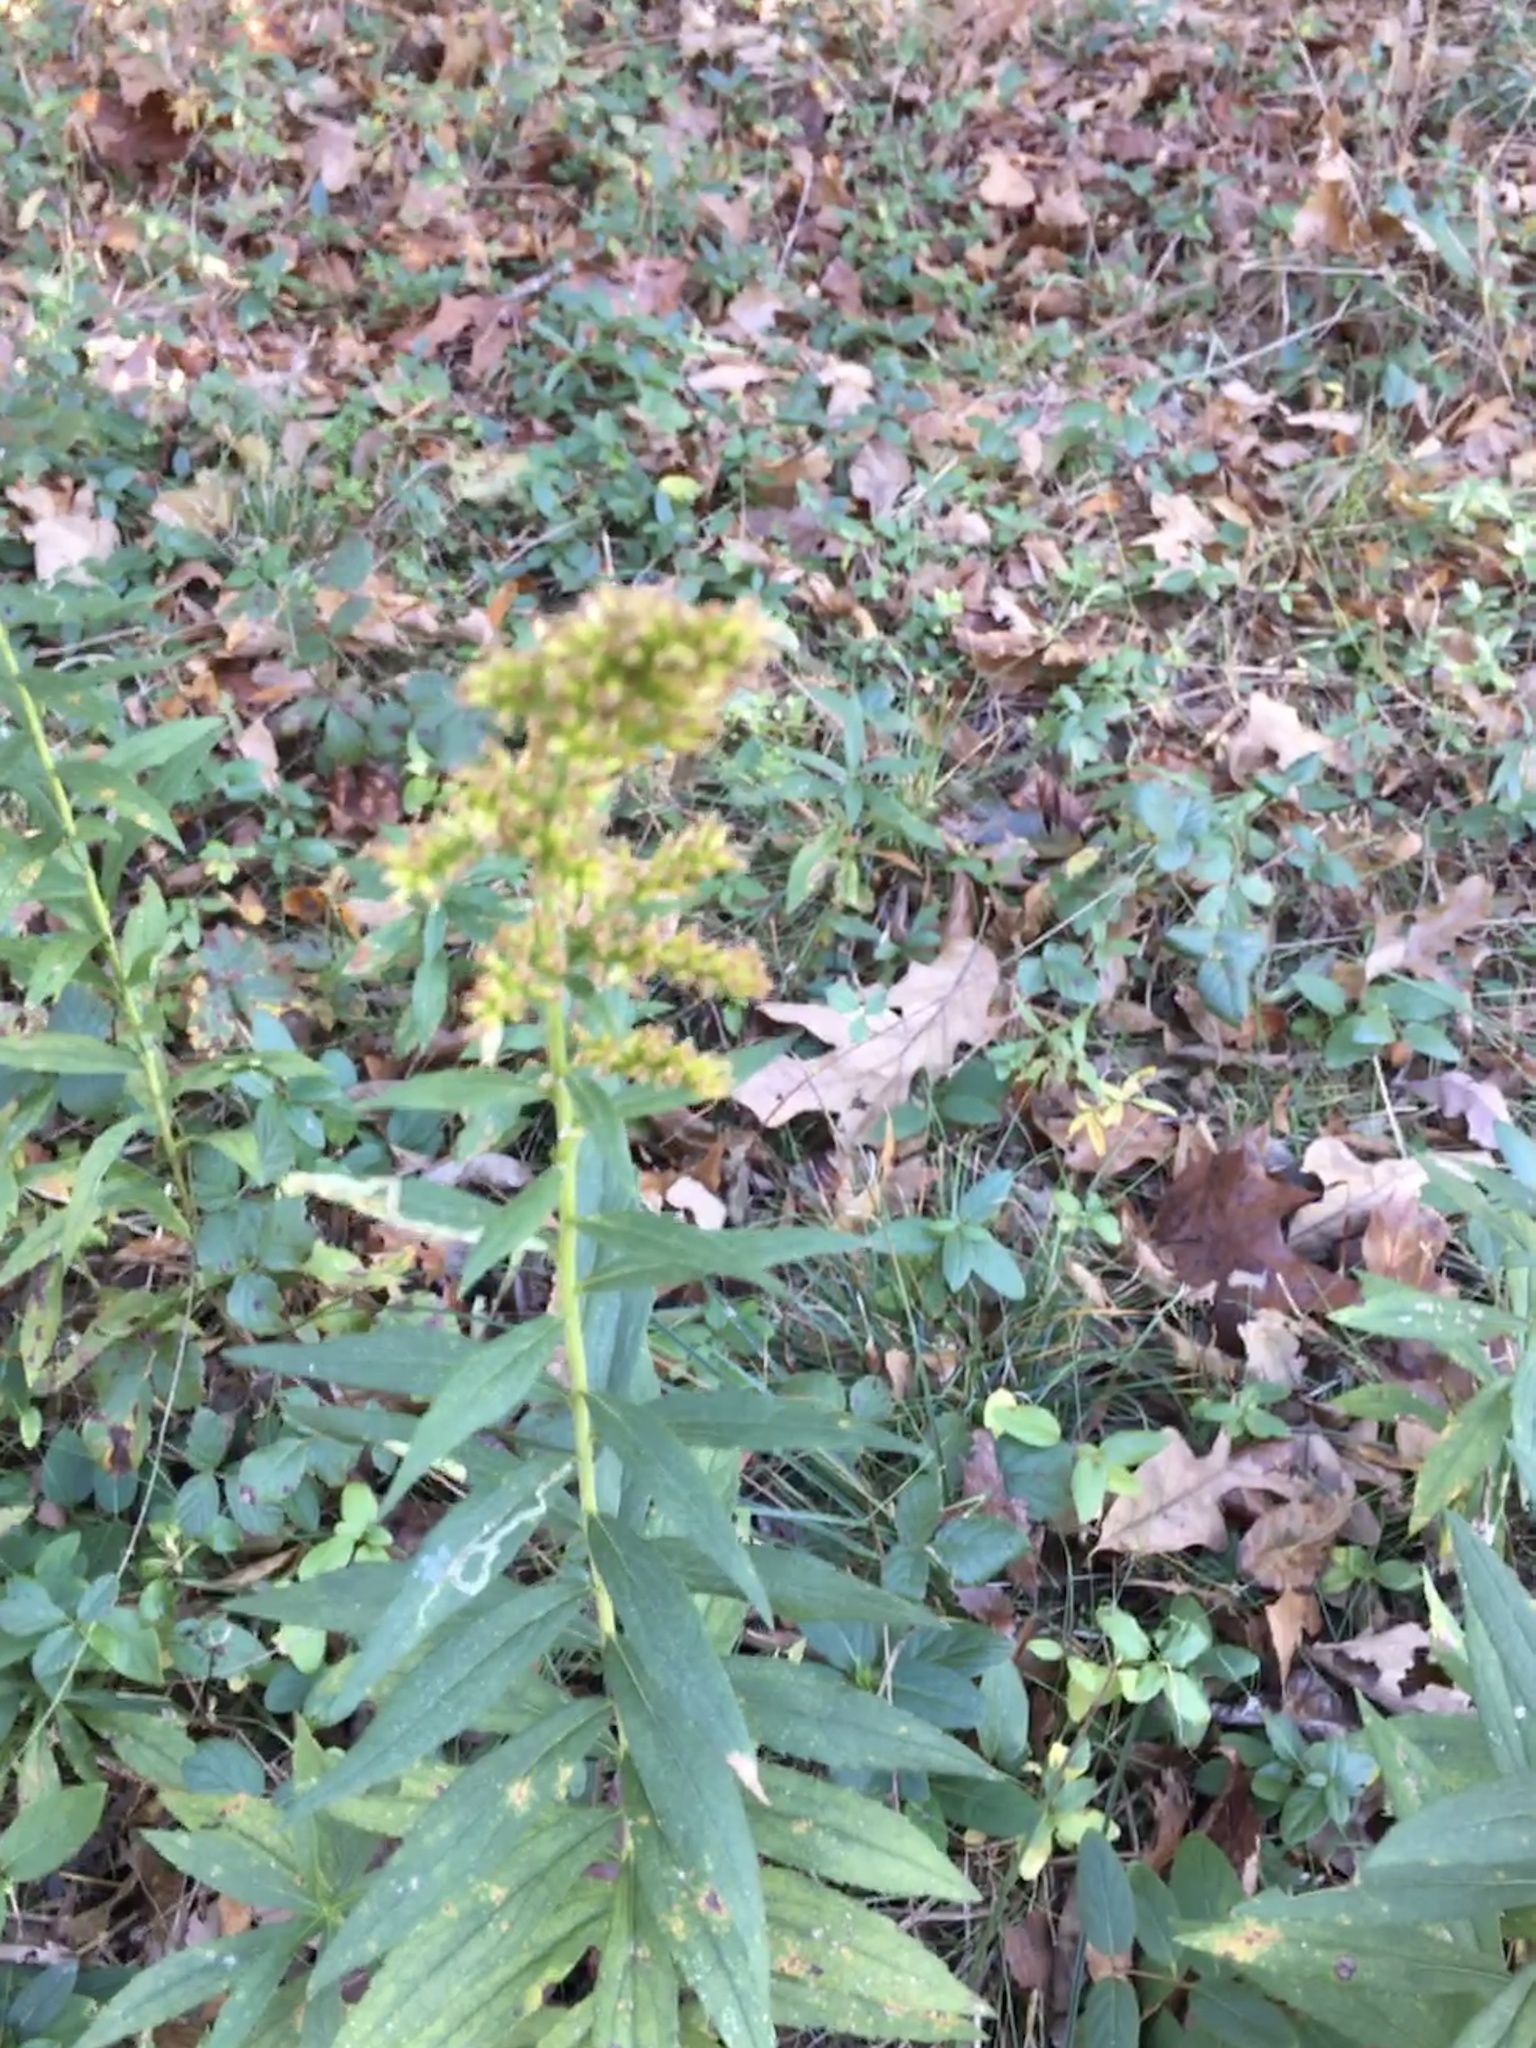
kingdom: Plantae
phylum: Tracheophyta
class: Magnoliopsida
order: Asterales
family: Asteraceae
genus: Solidago
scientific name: Solidago altissima
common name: Late goldenrod
